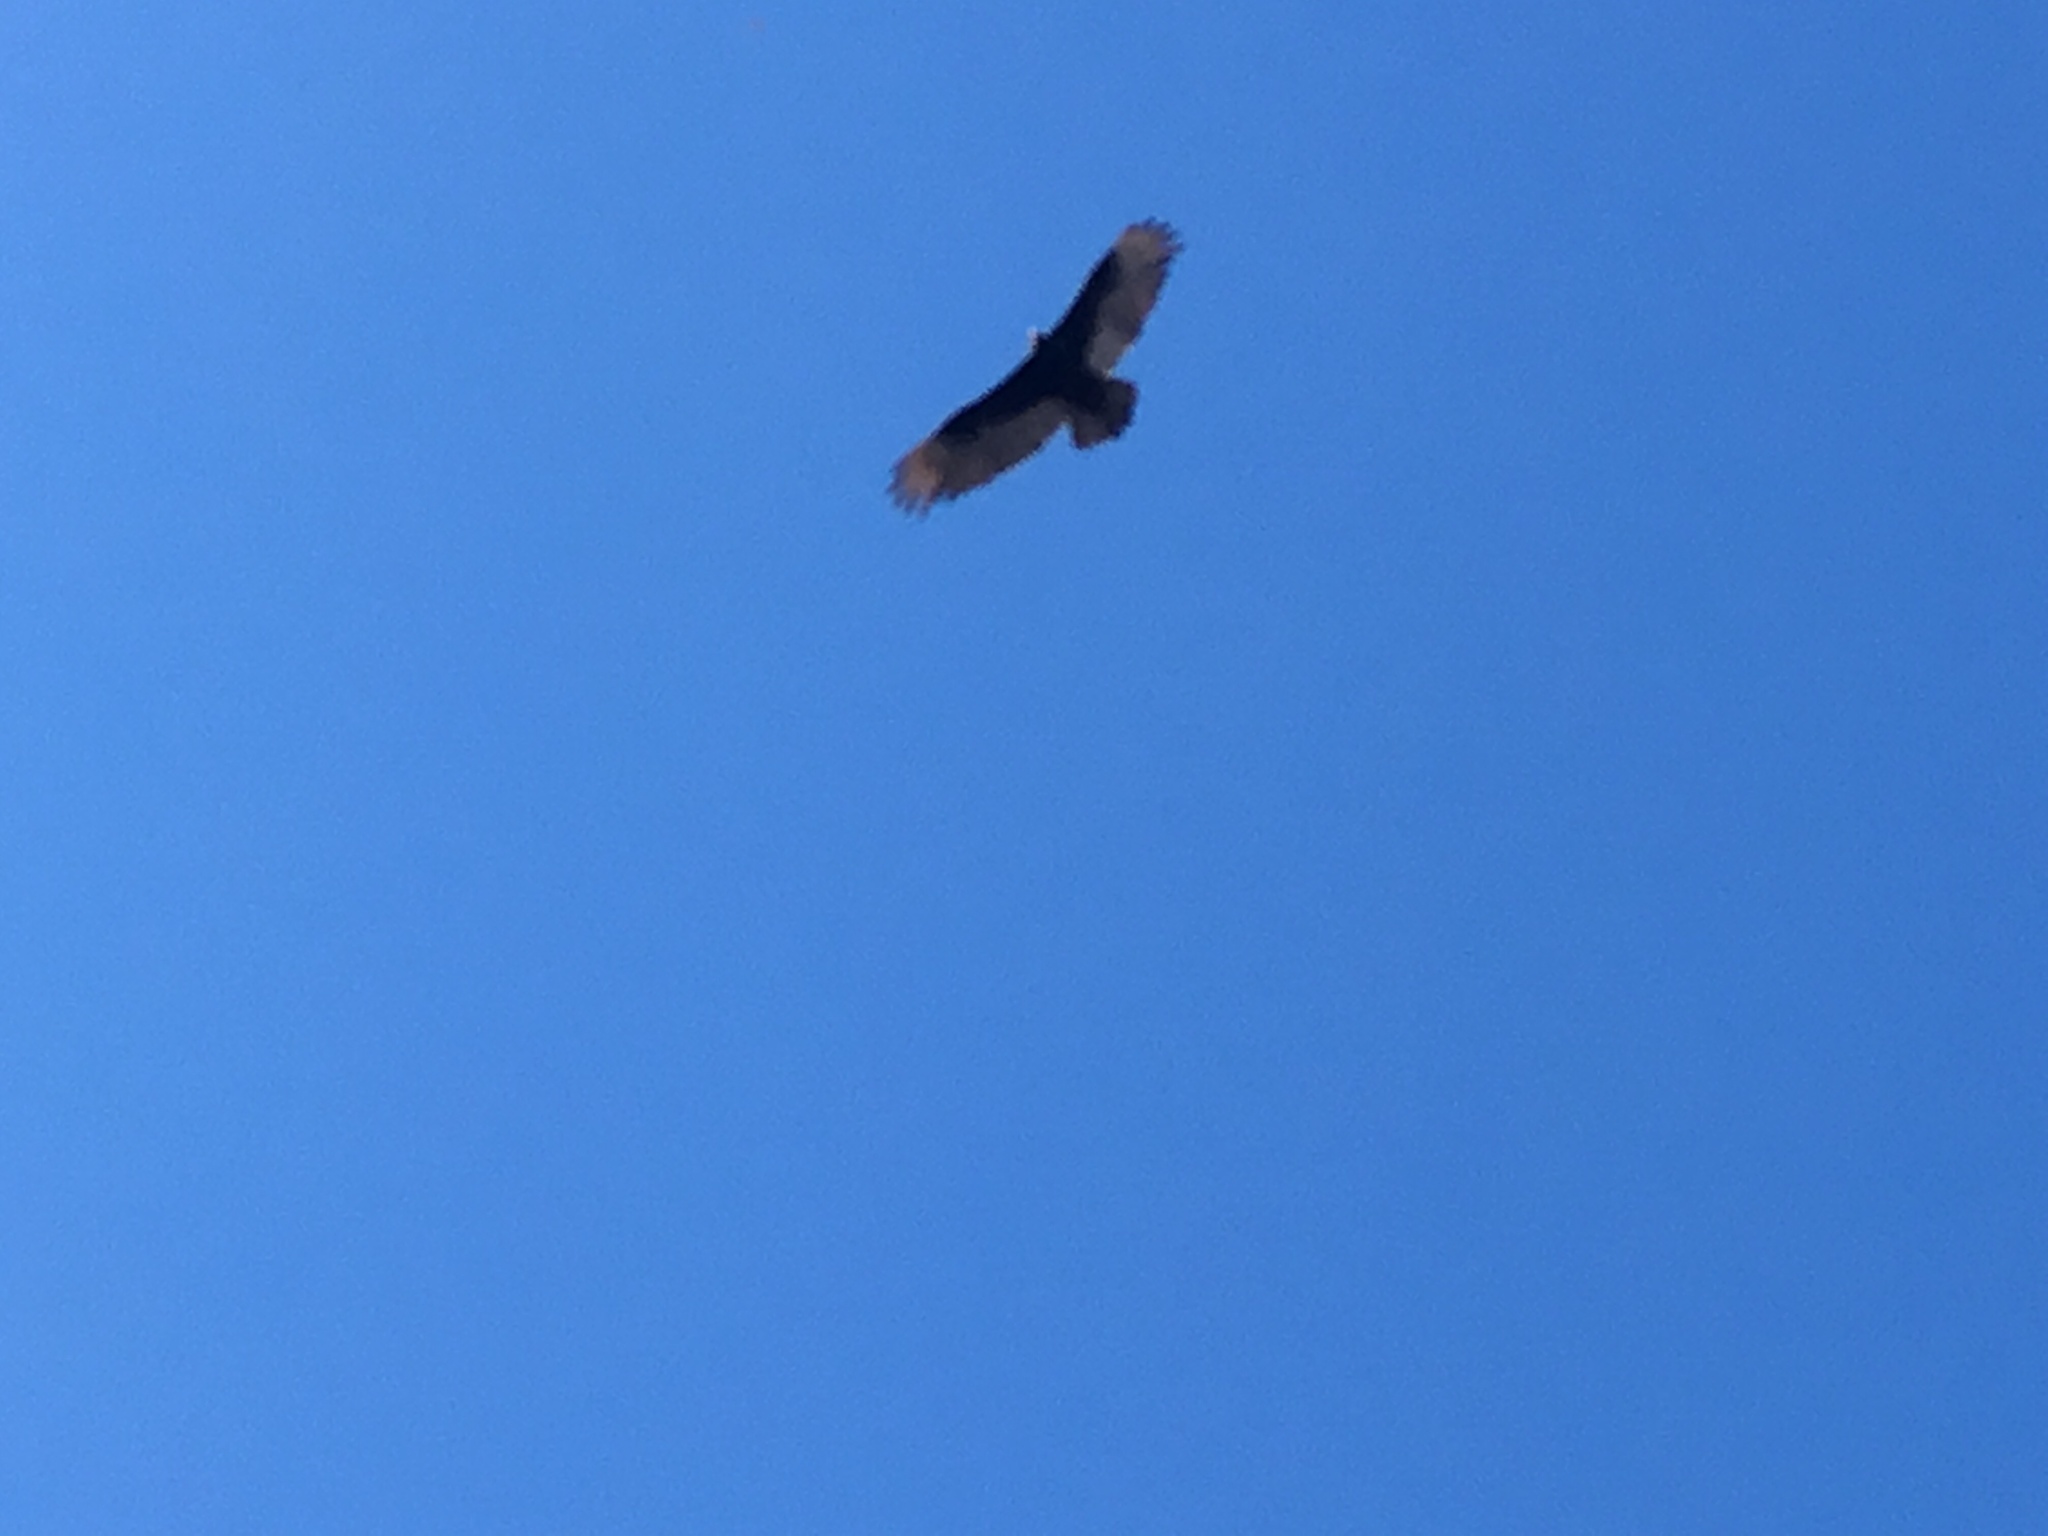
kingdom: Animalia
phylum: Chordata
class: Aves
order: Accipitriformes
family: Cathartidae
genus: Cathartes
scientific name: Cathartes aura
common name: Turkey vulture
